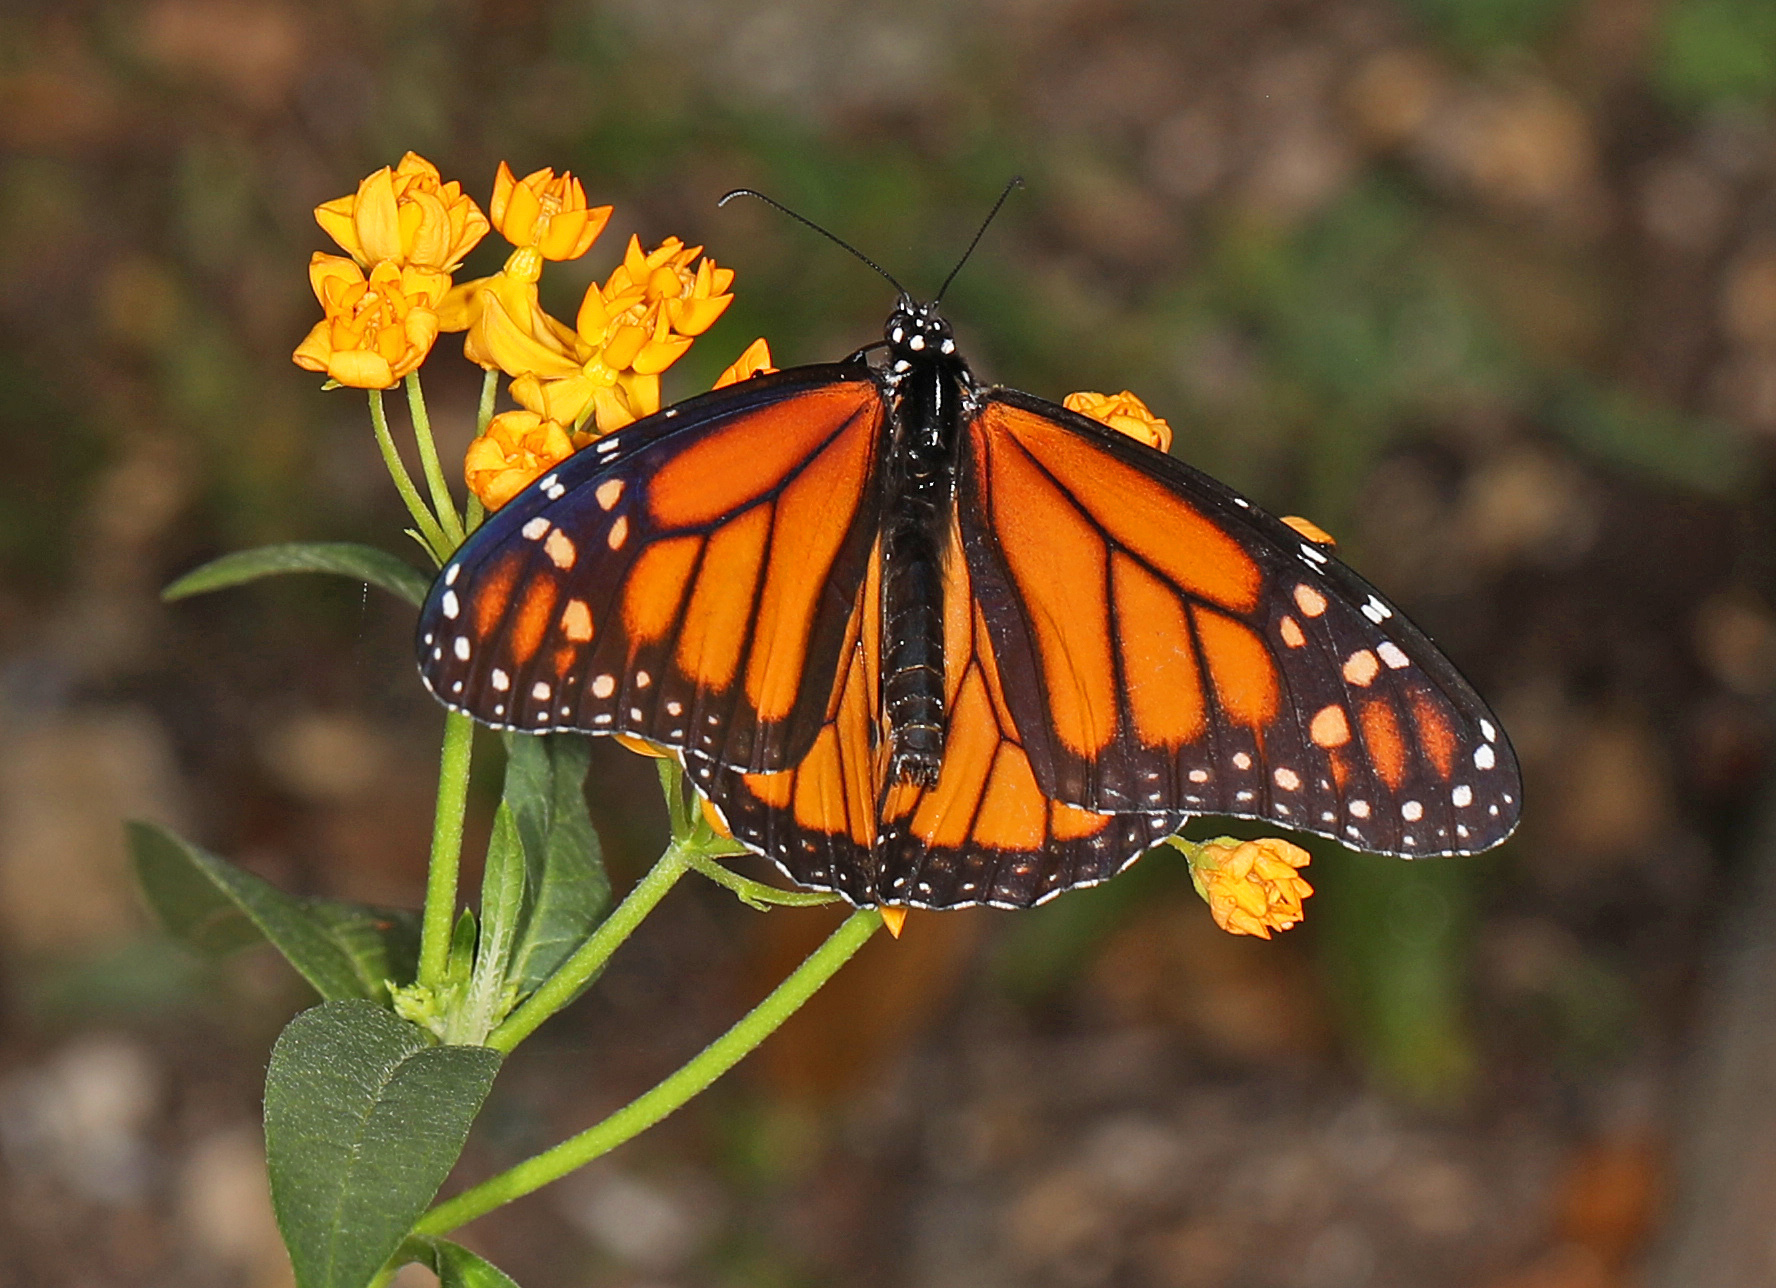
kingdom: Animalia
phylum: Arthropoda
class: Insecta
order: Lepidoptera
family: Nymphalidae
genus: Danaus
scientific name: Danaus plexippus
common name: Monarch
